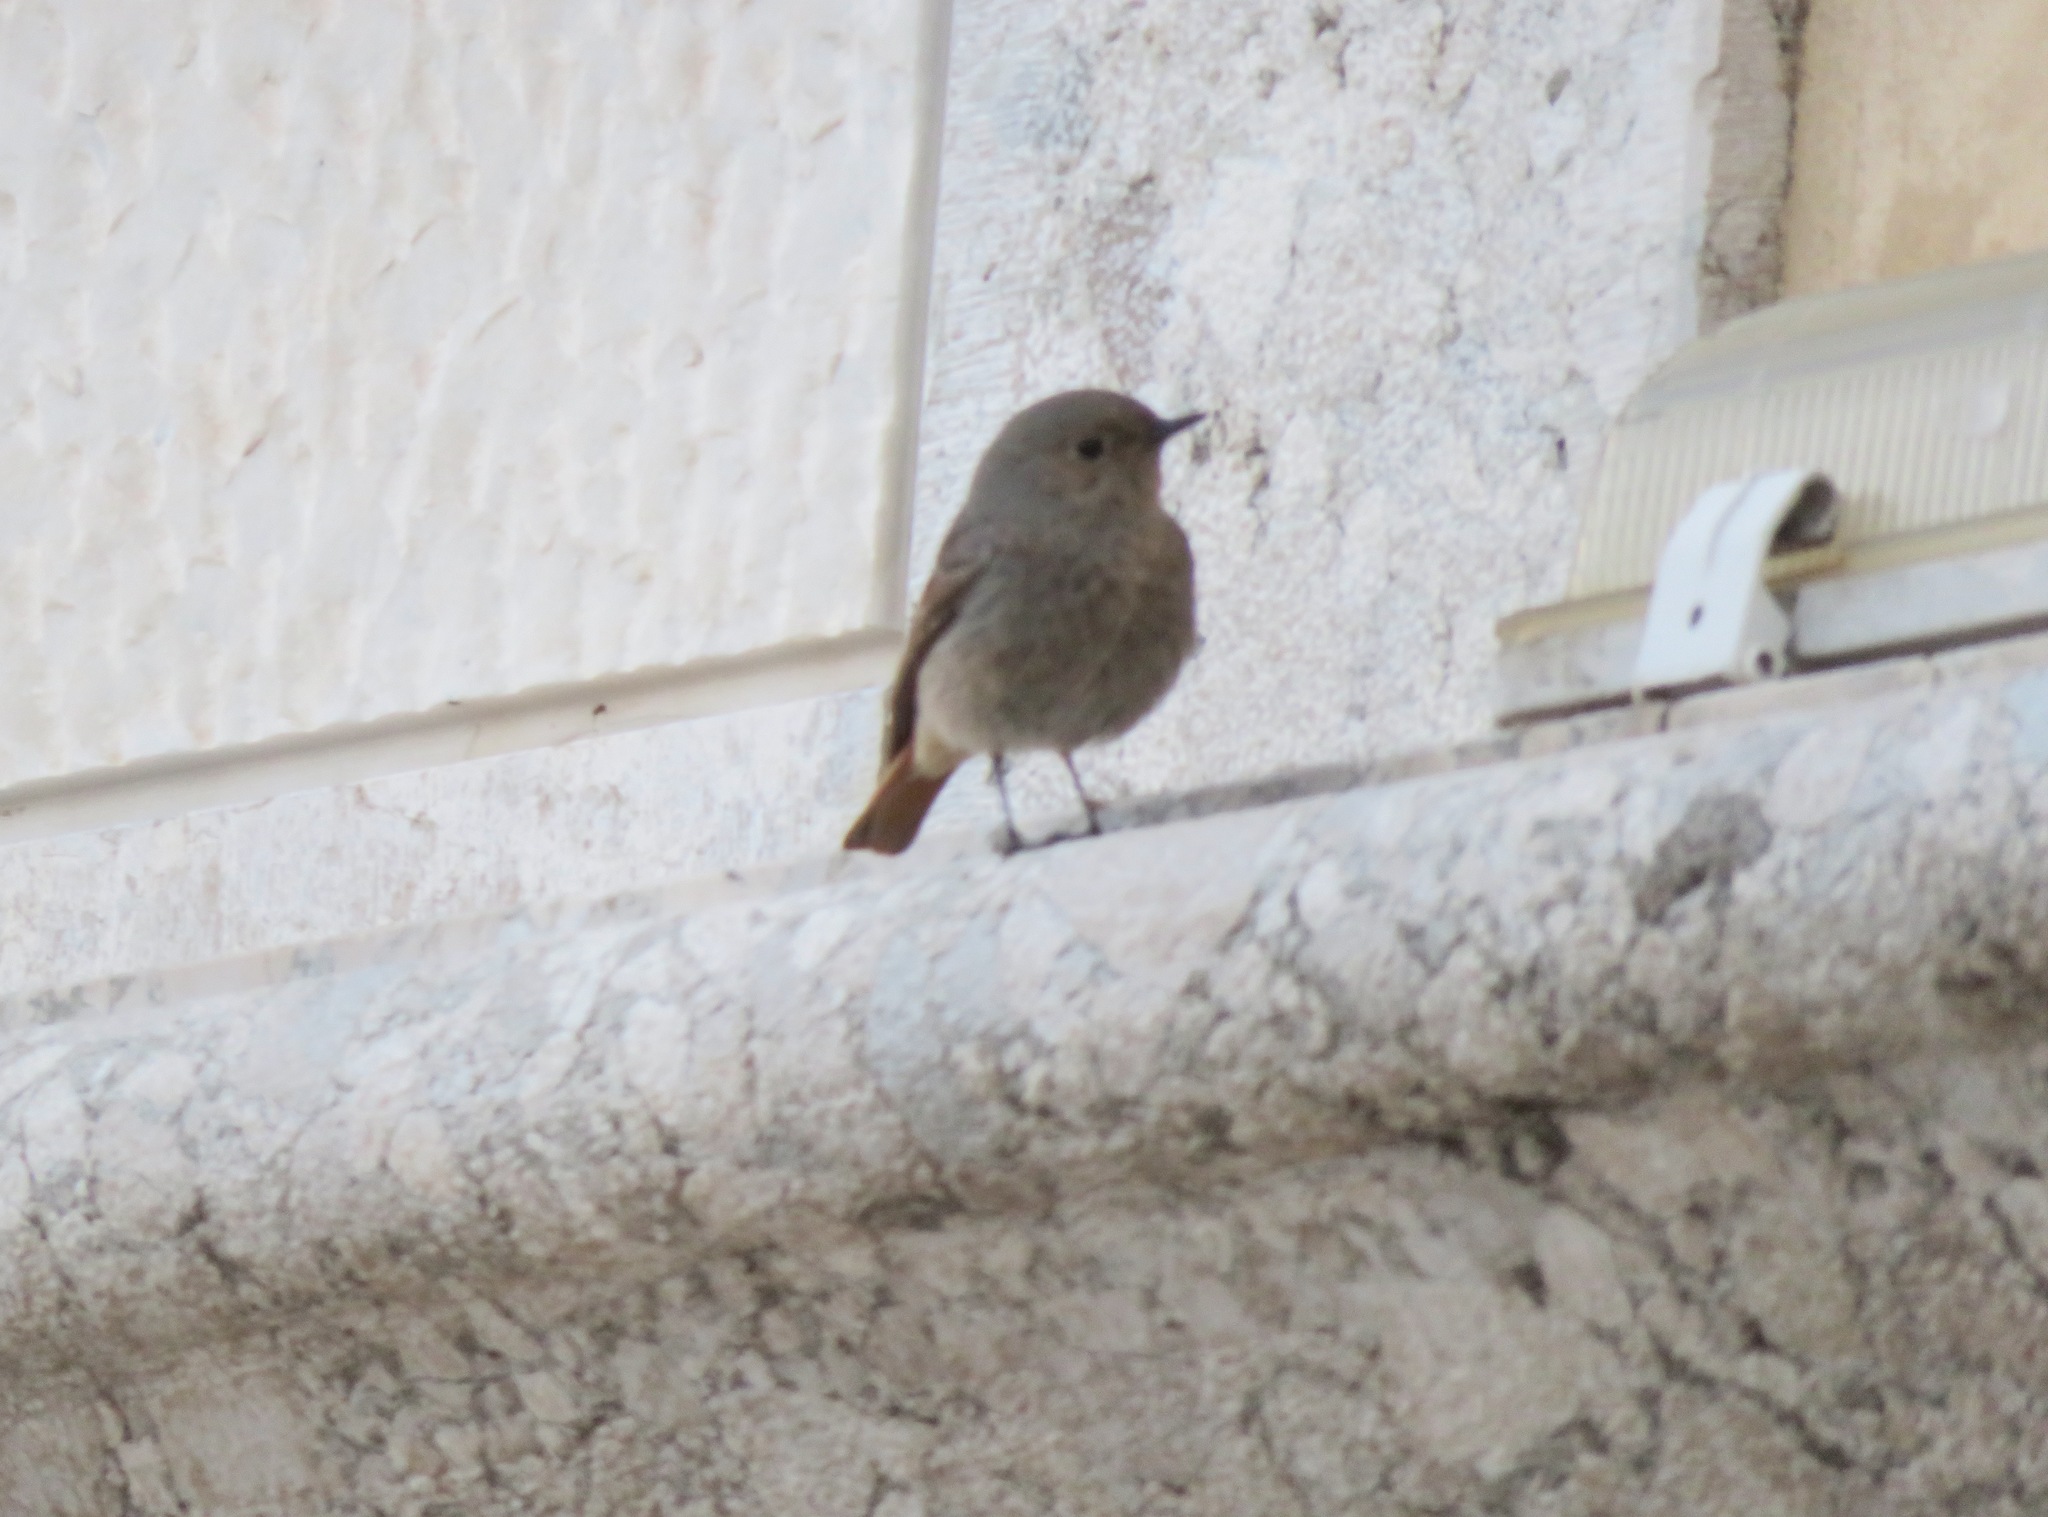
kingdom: Animalia
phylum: Chordata
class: Aves
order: Passeriformes
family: Muscicapidae
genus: Phoenicurus
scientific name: Phoenicurus ochruros
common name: Black redstart
